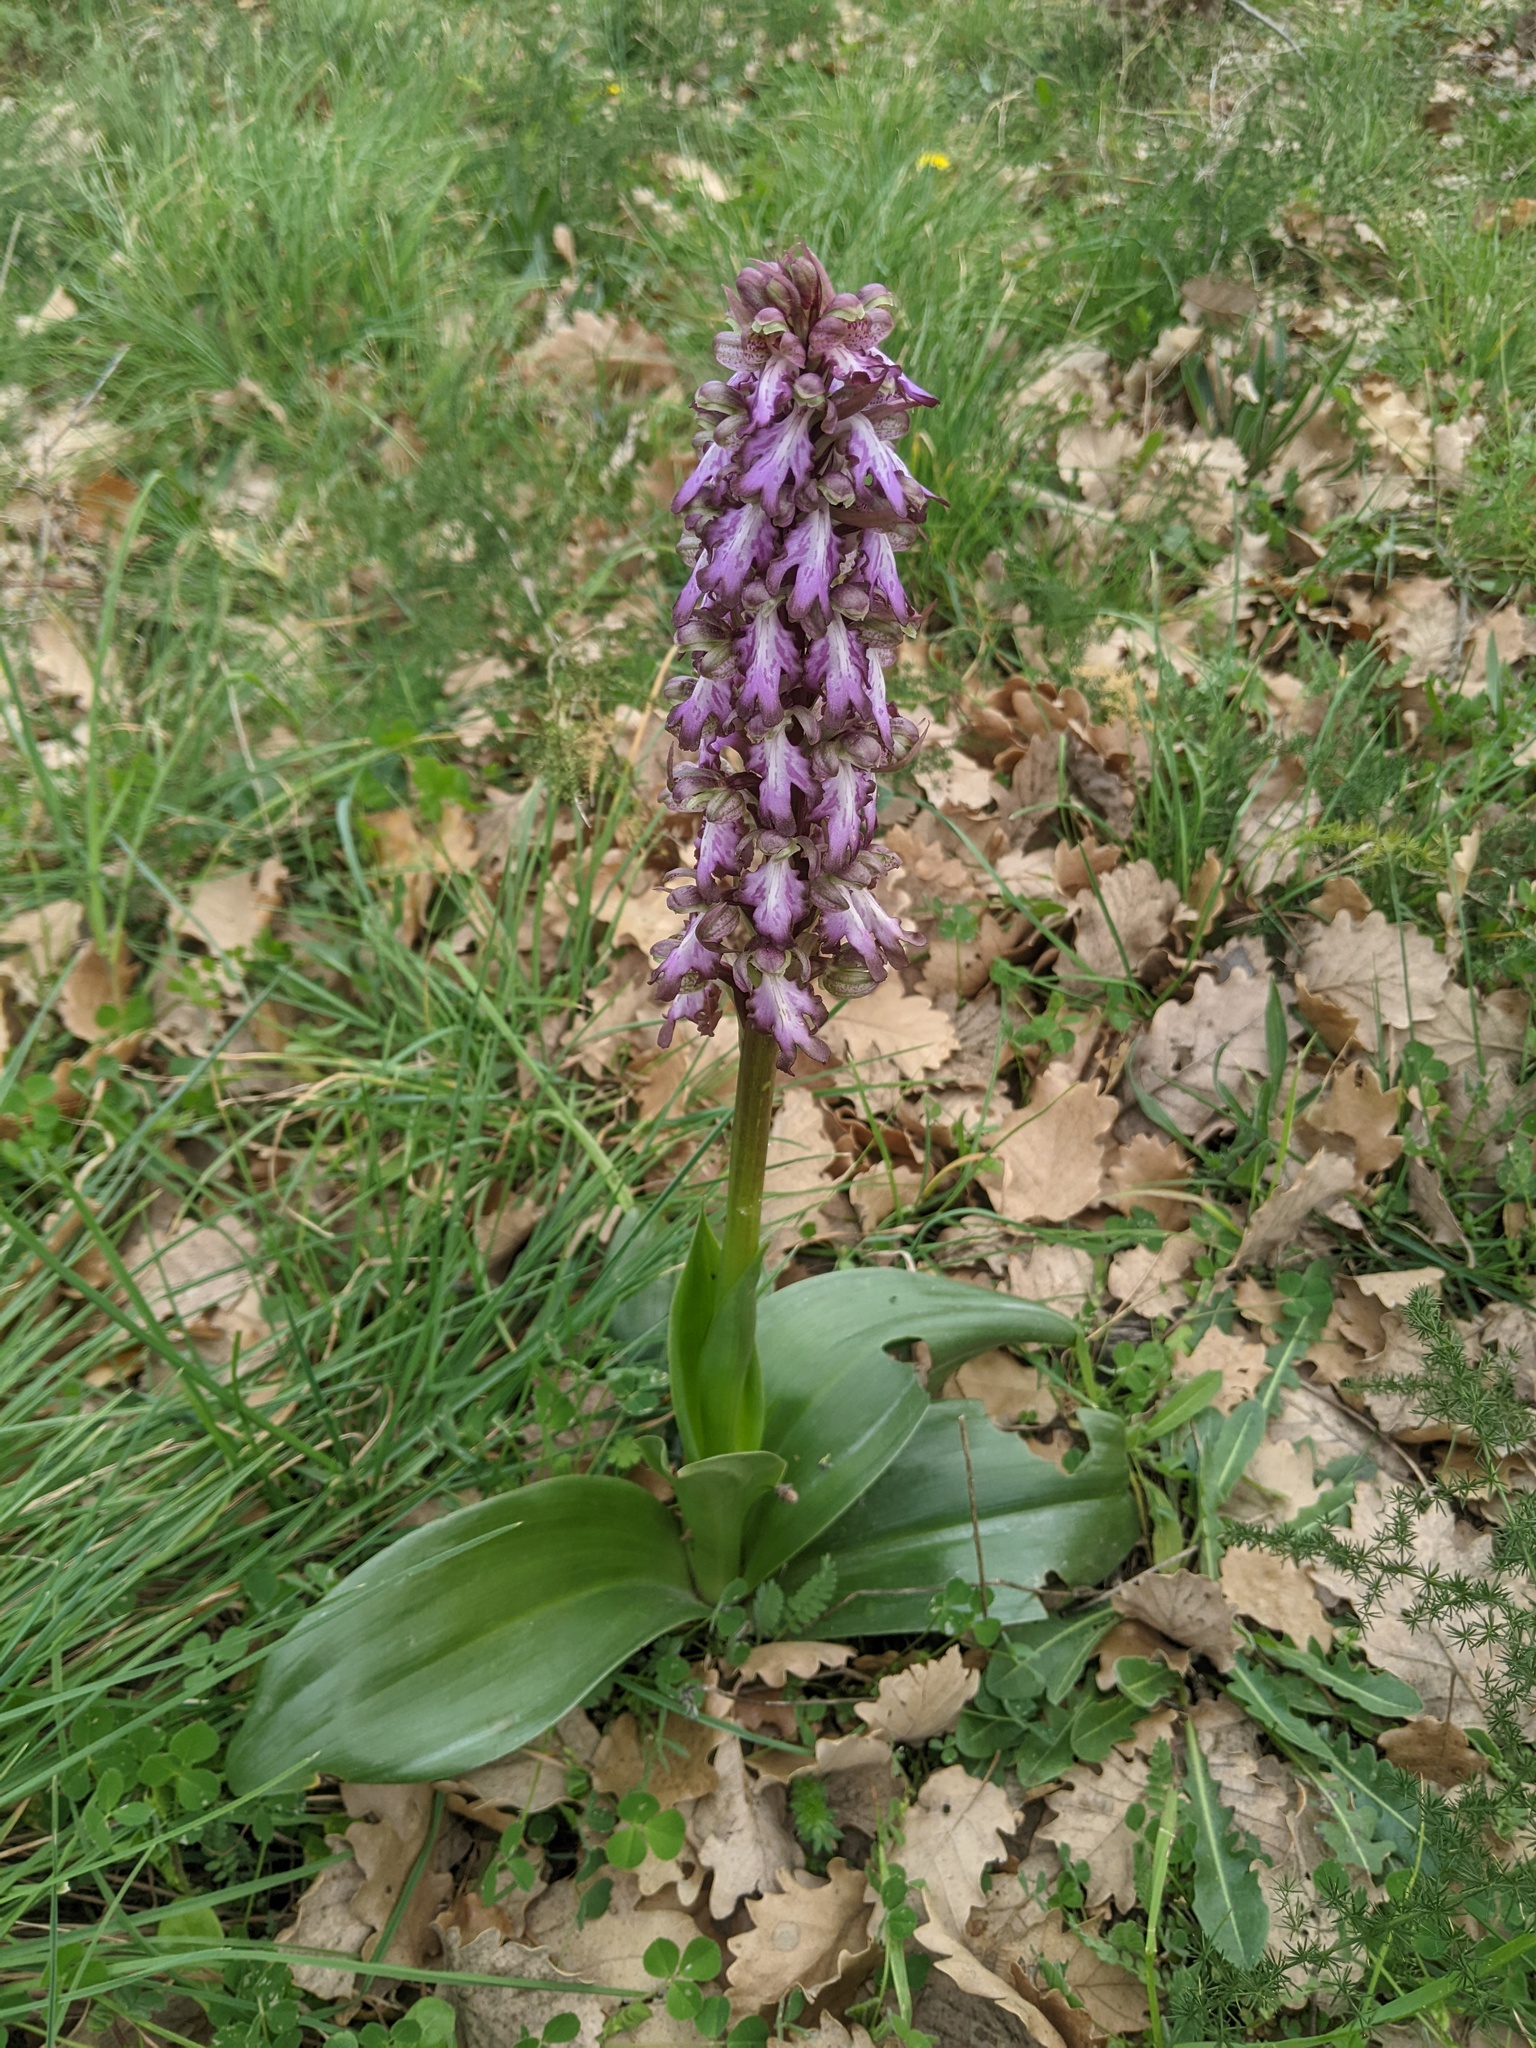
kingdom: Plantae
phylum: Tracheophyta
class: Liliopsida
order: Asparagales
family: Orchidaceae
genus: Himantoglossum
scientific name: Himantoglossum robertianum
